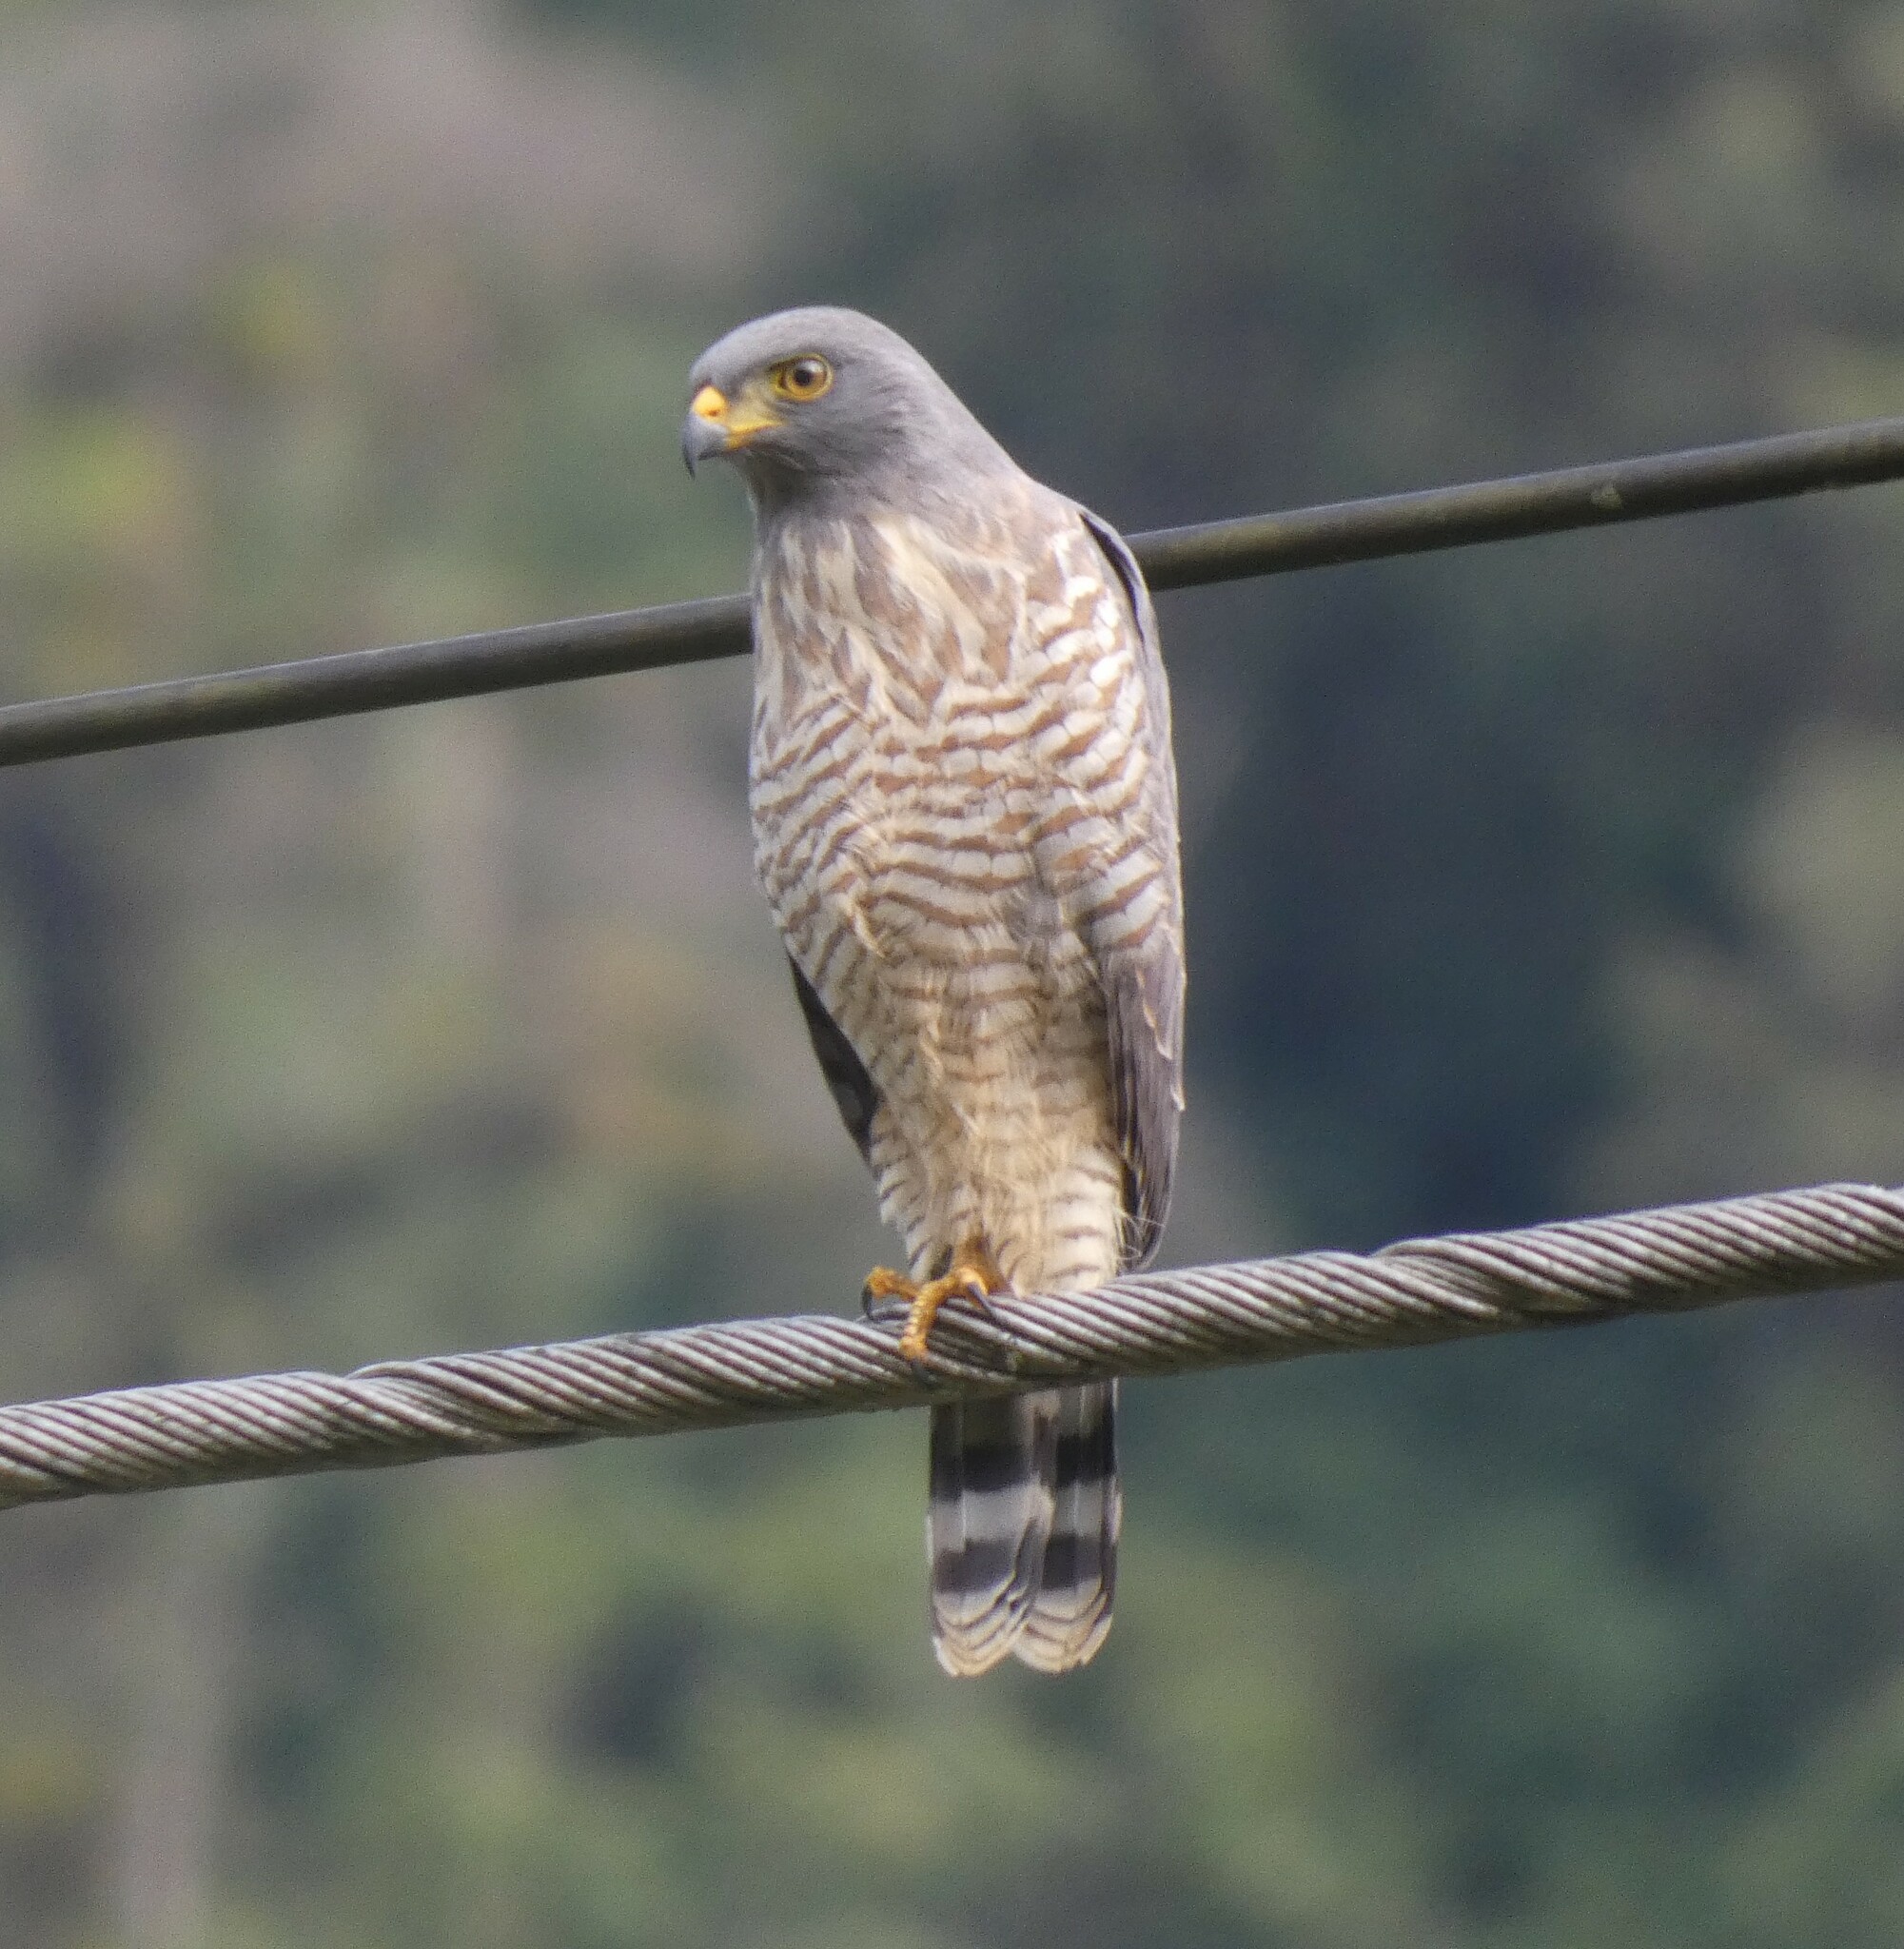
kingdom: Animalia
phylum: Chordata
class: Aves
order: Accipitriformes
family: Accipitridae
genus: Rupornis
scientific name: Rupornis magnirostris
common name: Roadside hawk
